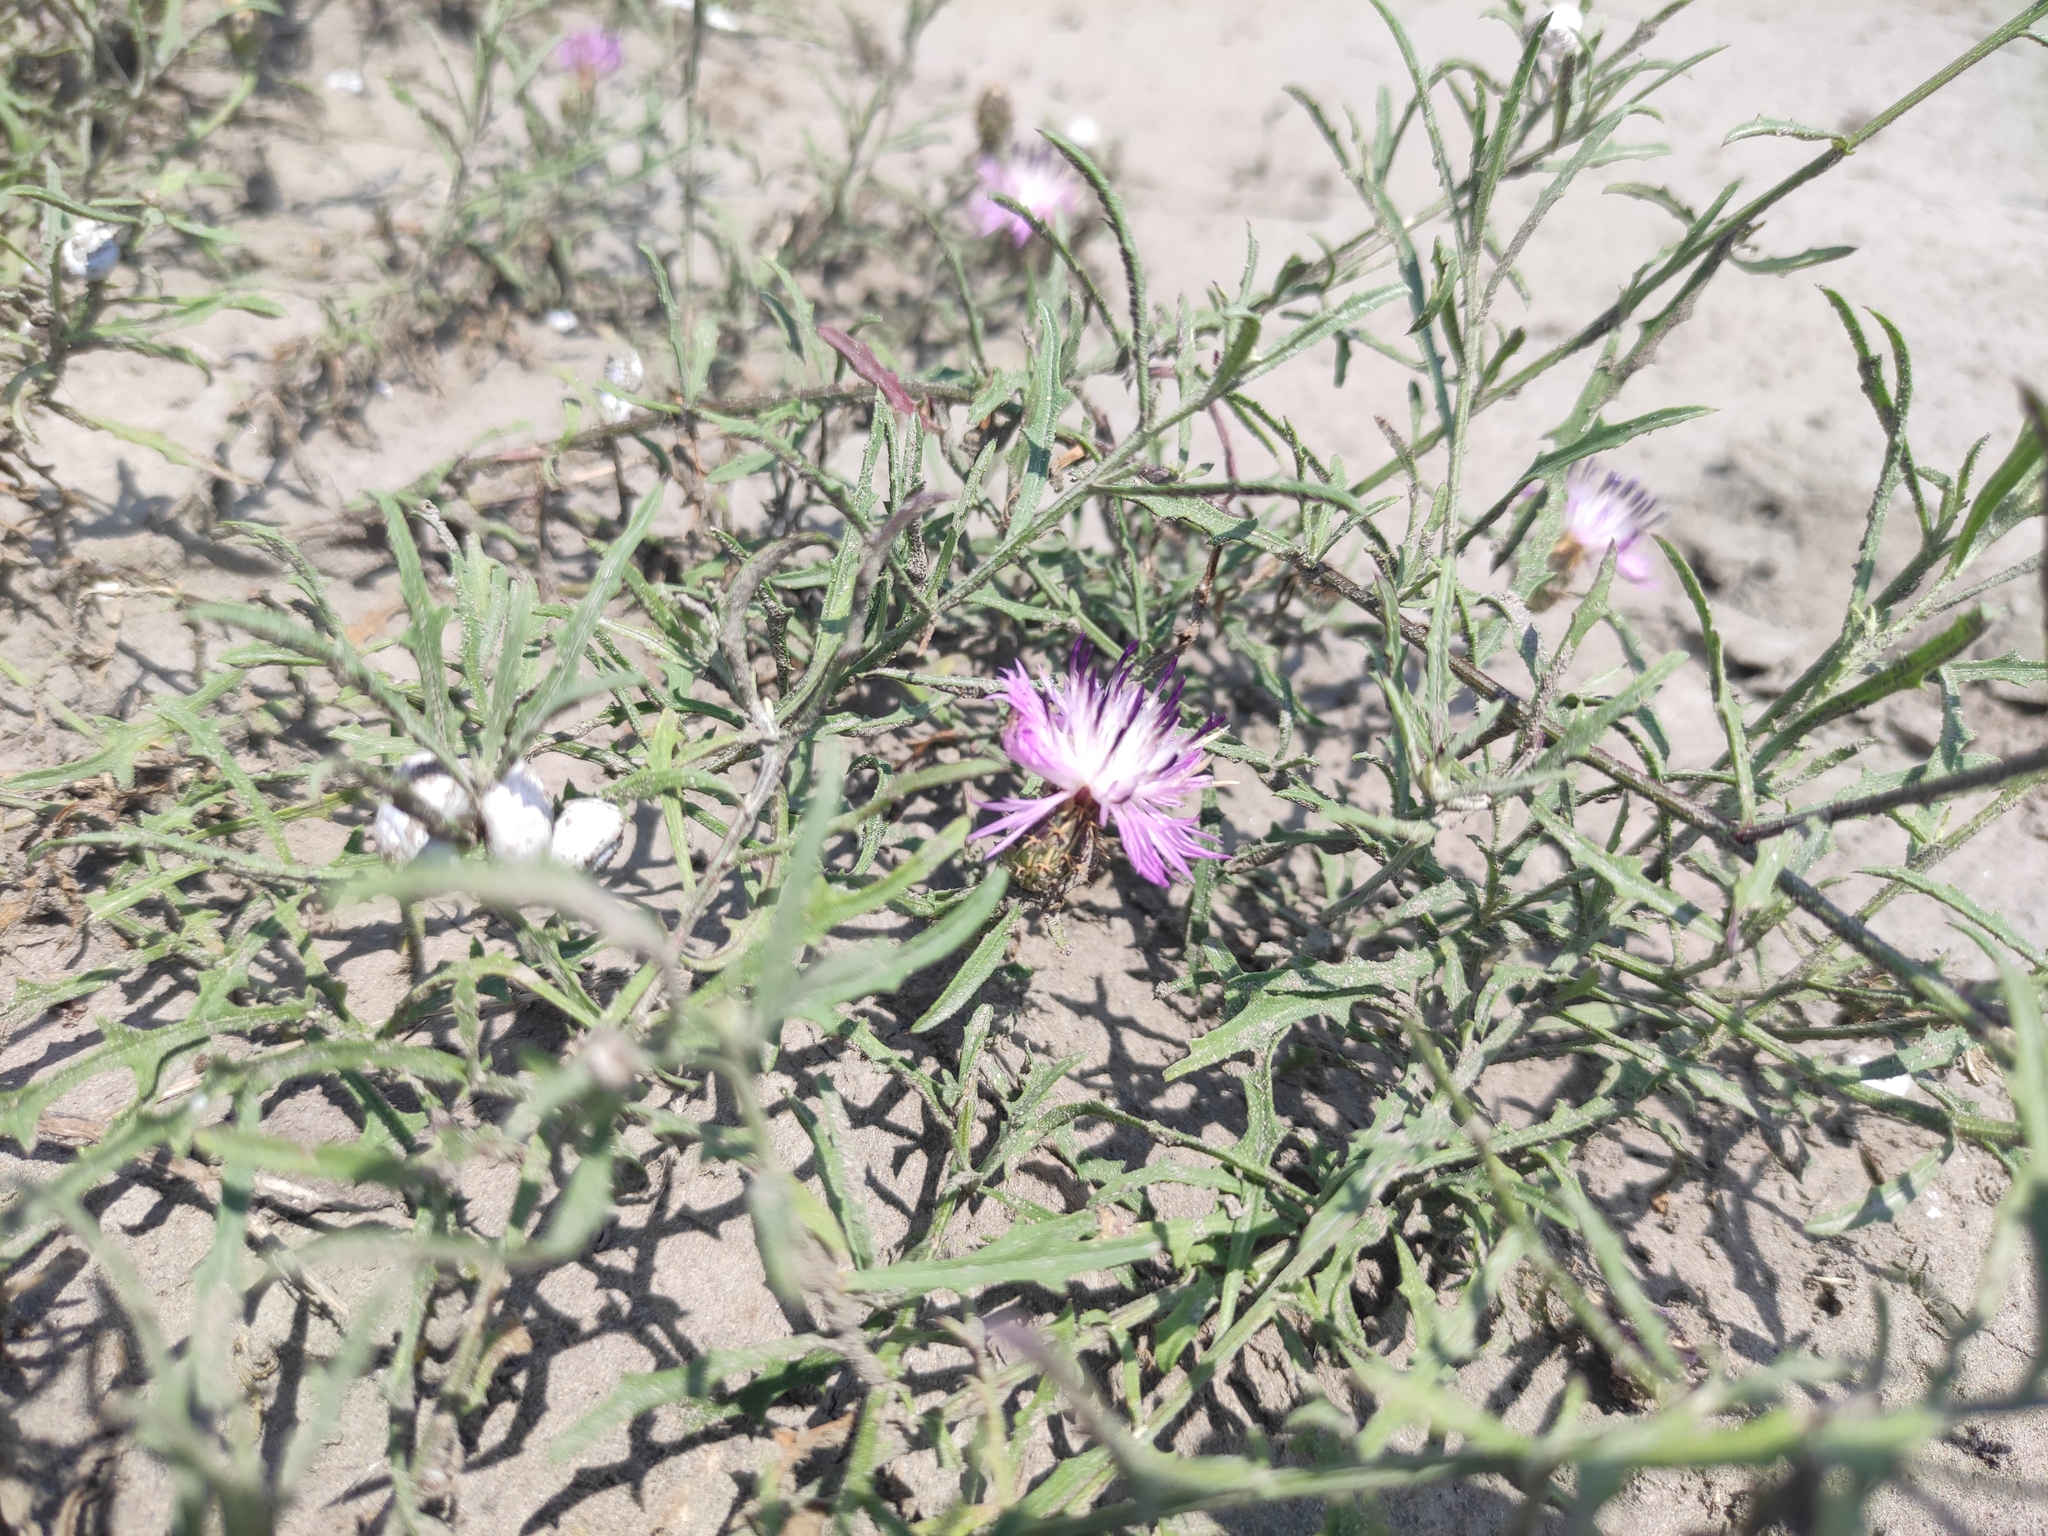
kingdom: Plantae
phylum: Tracheophyta
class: Magnoliopsida
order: Asterales
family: Asteraceae
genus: Centaurea
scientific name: Centaurea aspera
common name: Rough star-thistle
